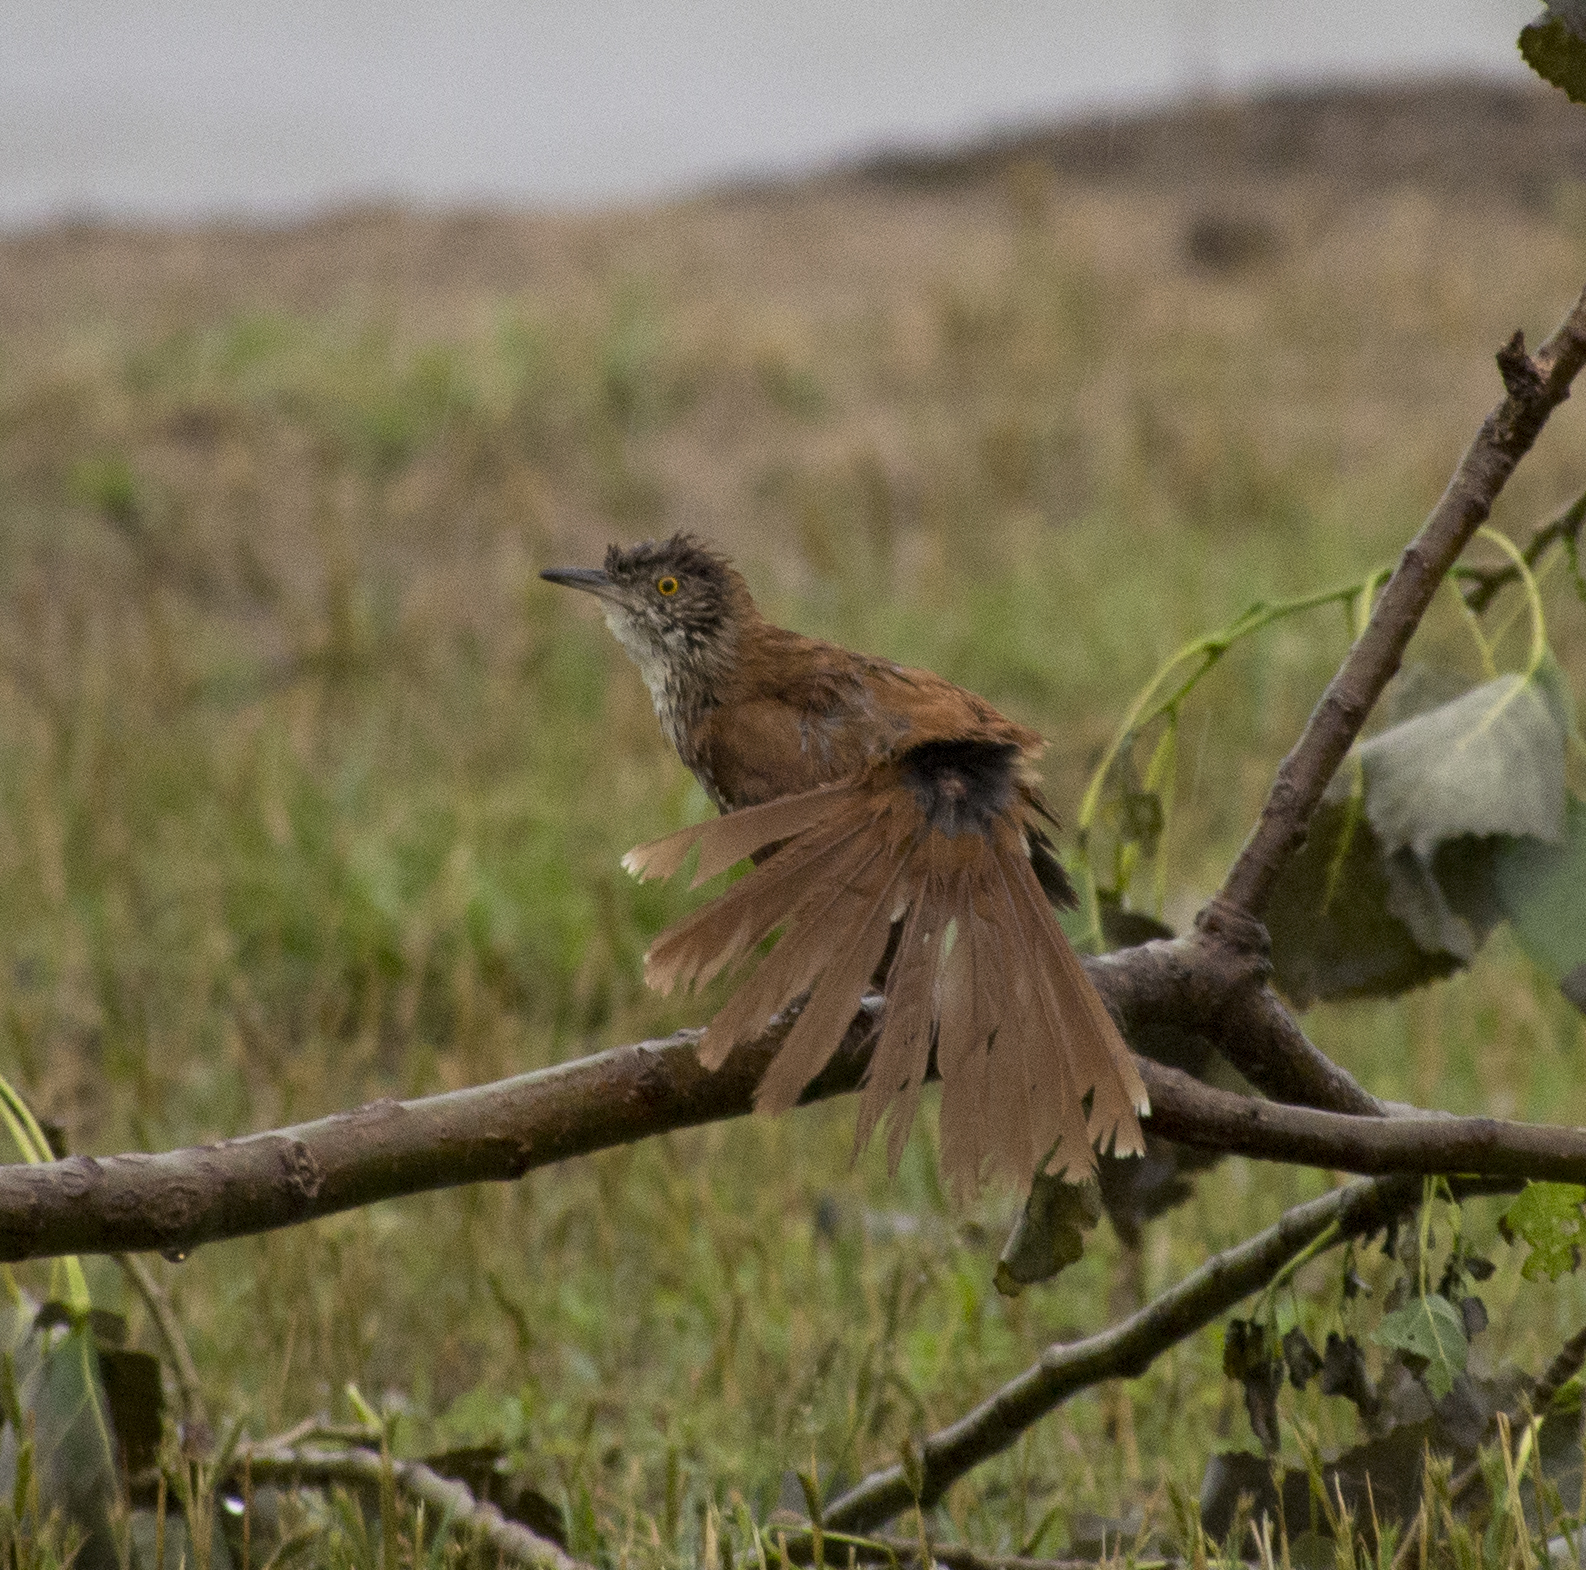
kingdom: Animalia
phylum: Chordata
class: Aves
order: Passeriformes
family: Mimidae
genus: Toxostoma
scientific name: Toxostoma rufum
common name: Brown thrasher
